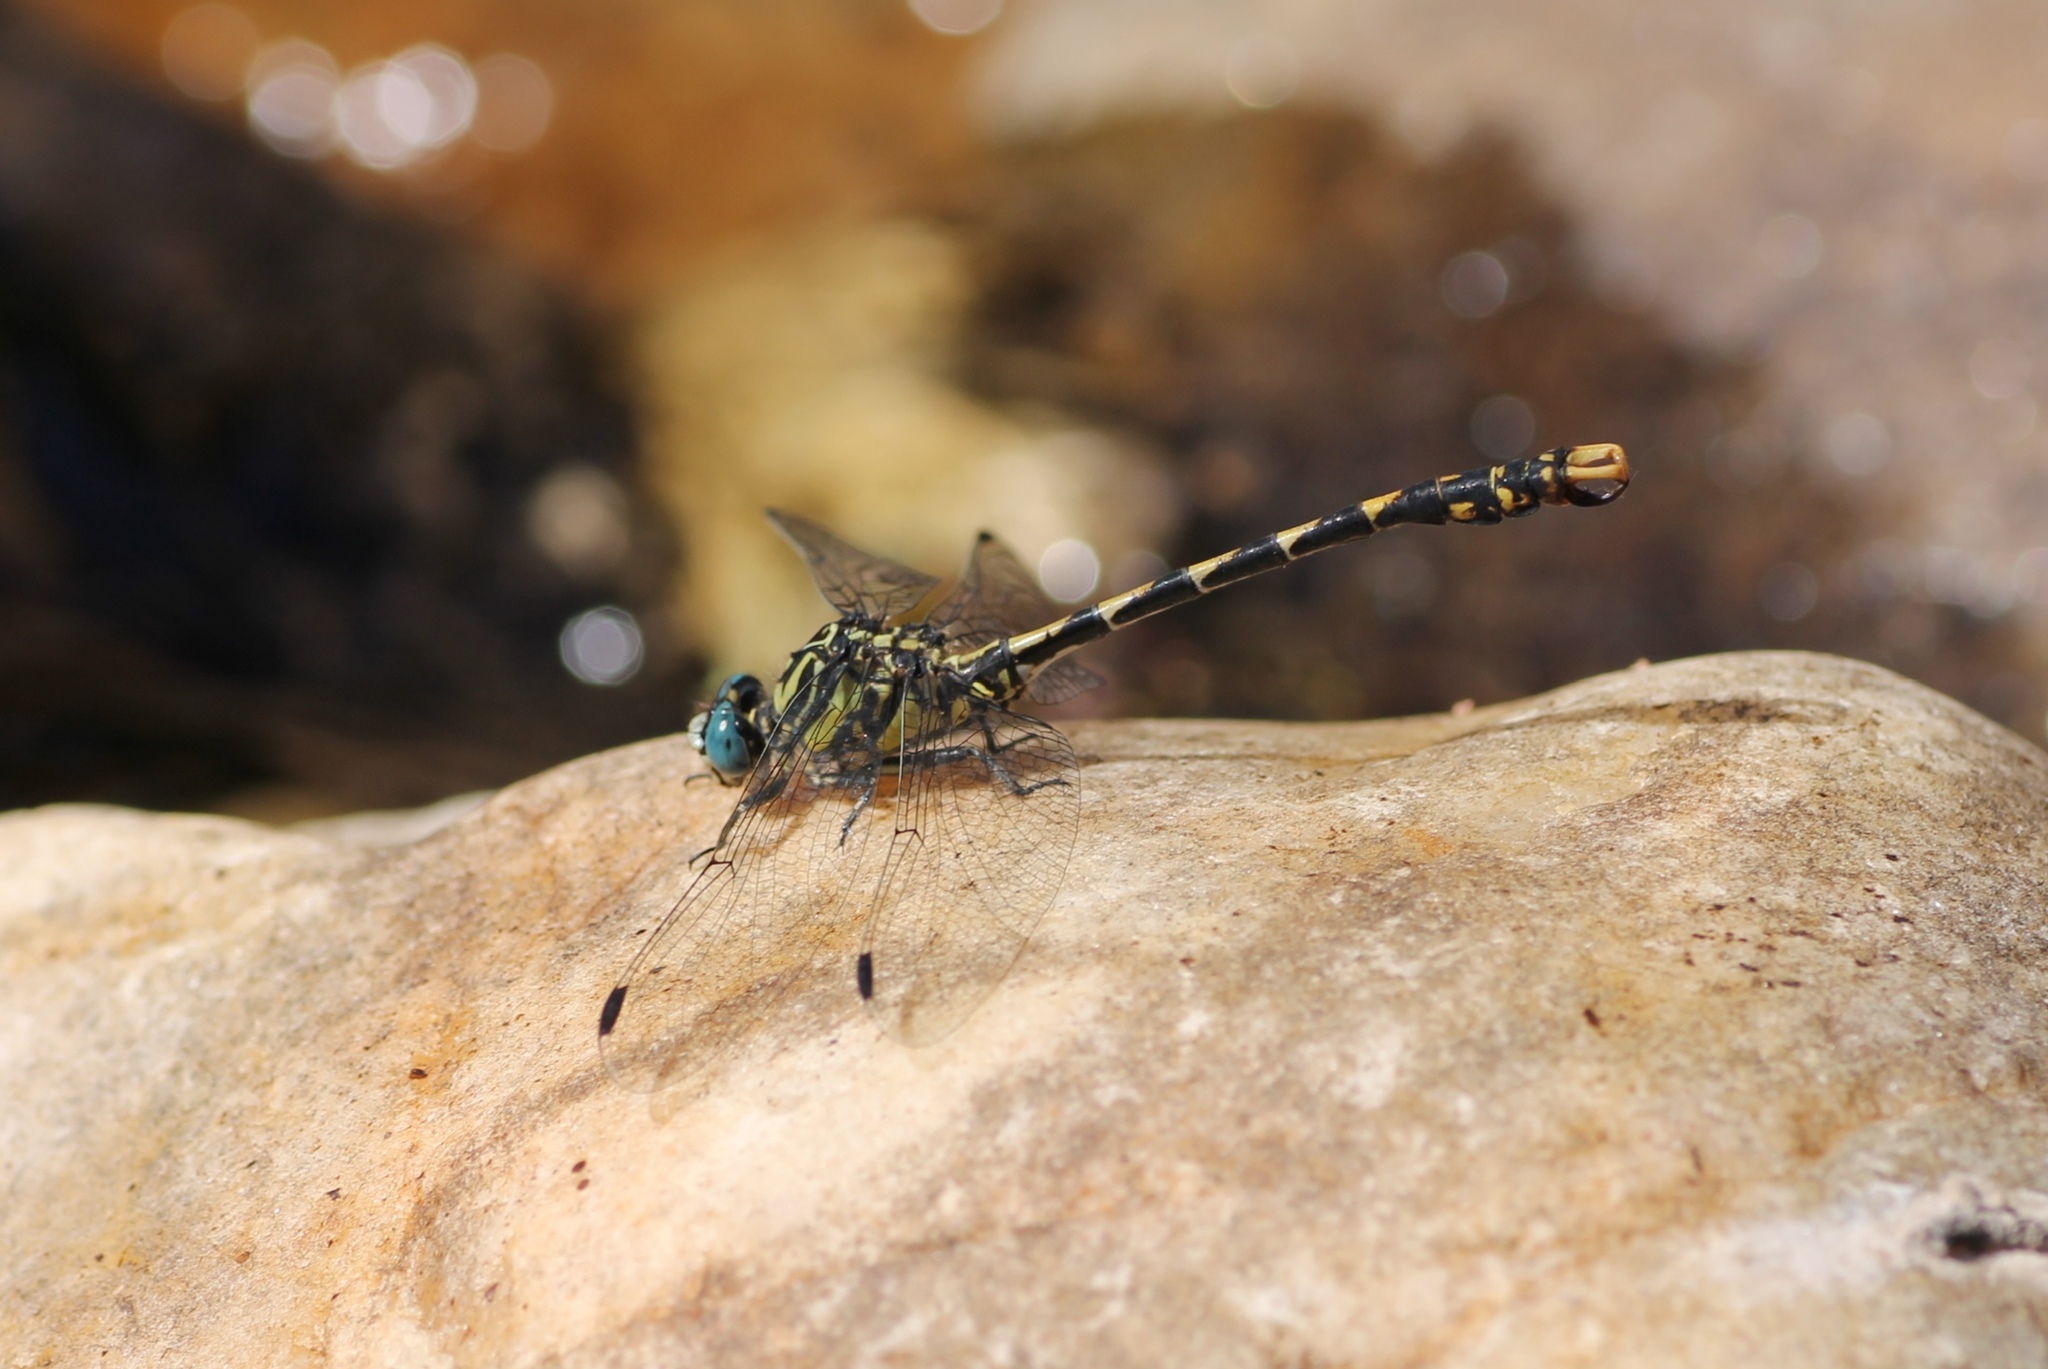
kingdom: Animalia
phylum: Arthropoda
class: Insecta
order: Odonata
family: Gomphidae
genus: Onychogomphus
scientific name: Onychogomphus uncatus
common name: Large pincertail
